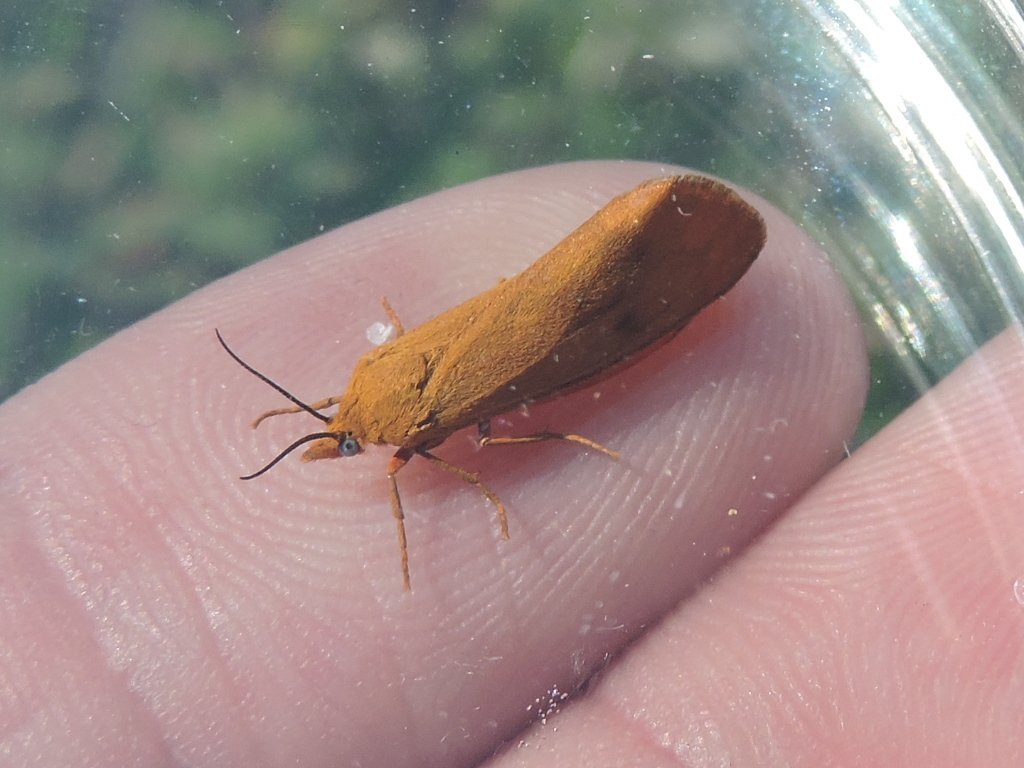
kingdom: Animalia
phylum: Arthropoda
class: Insecta
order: Lepidoptera
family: Erebidae
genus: Virbia
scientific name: Virbia aurantiaca
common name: Orange virbia moth
